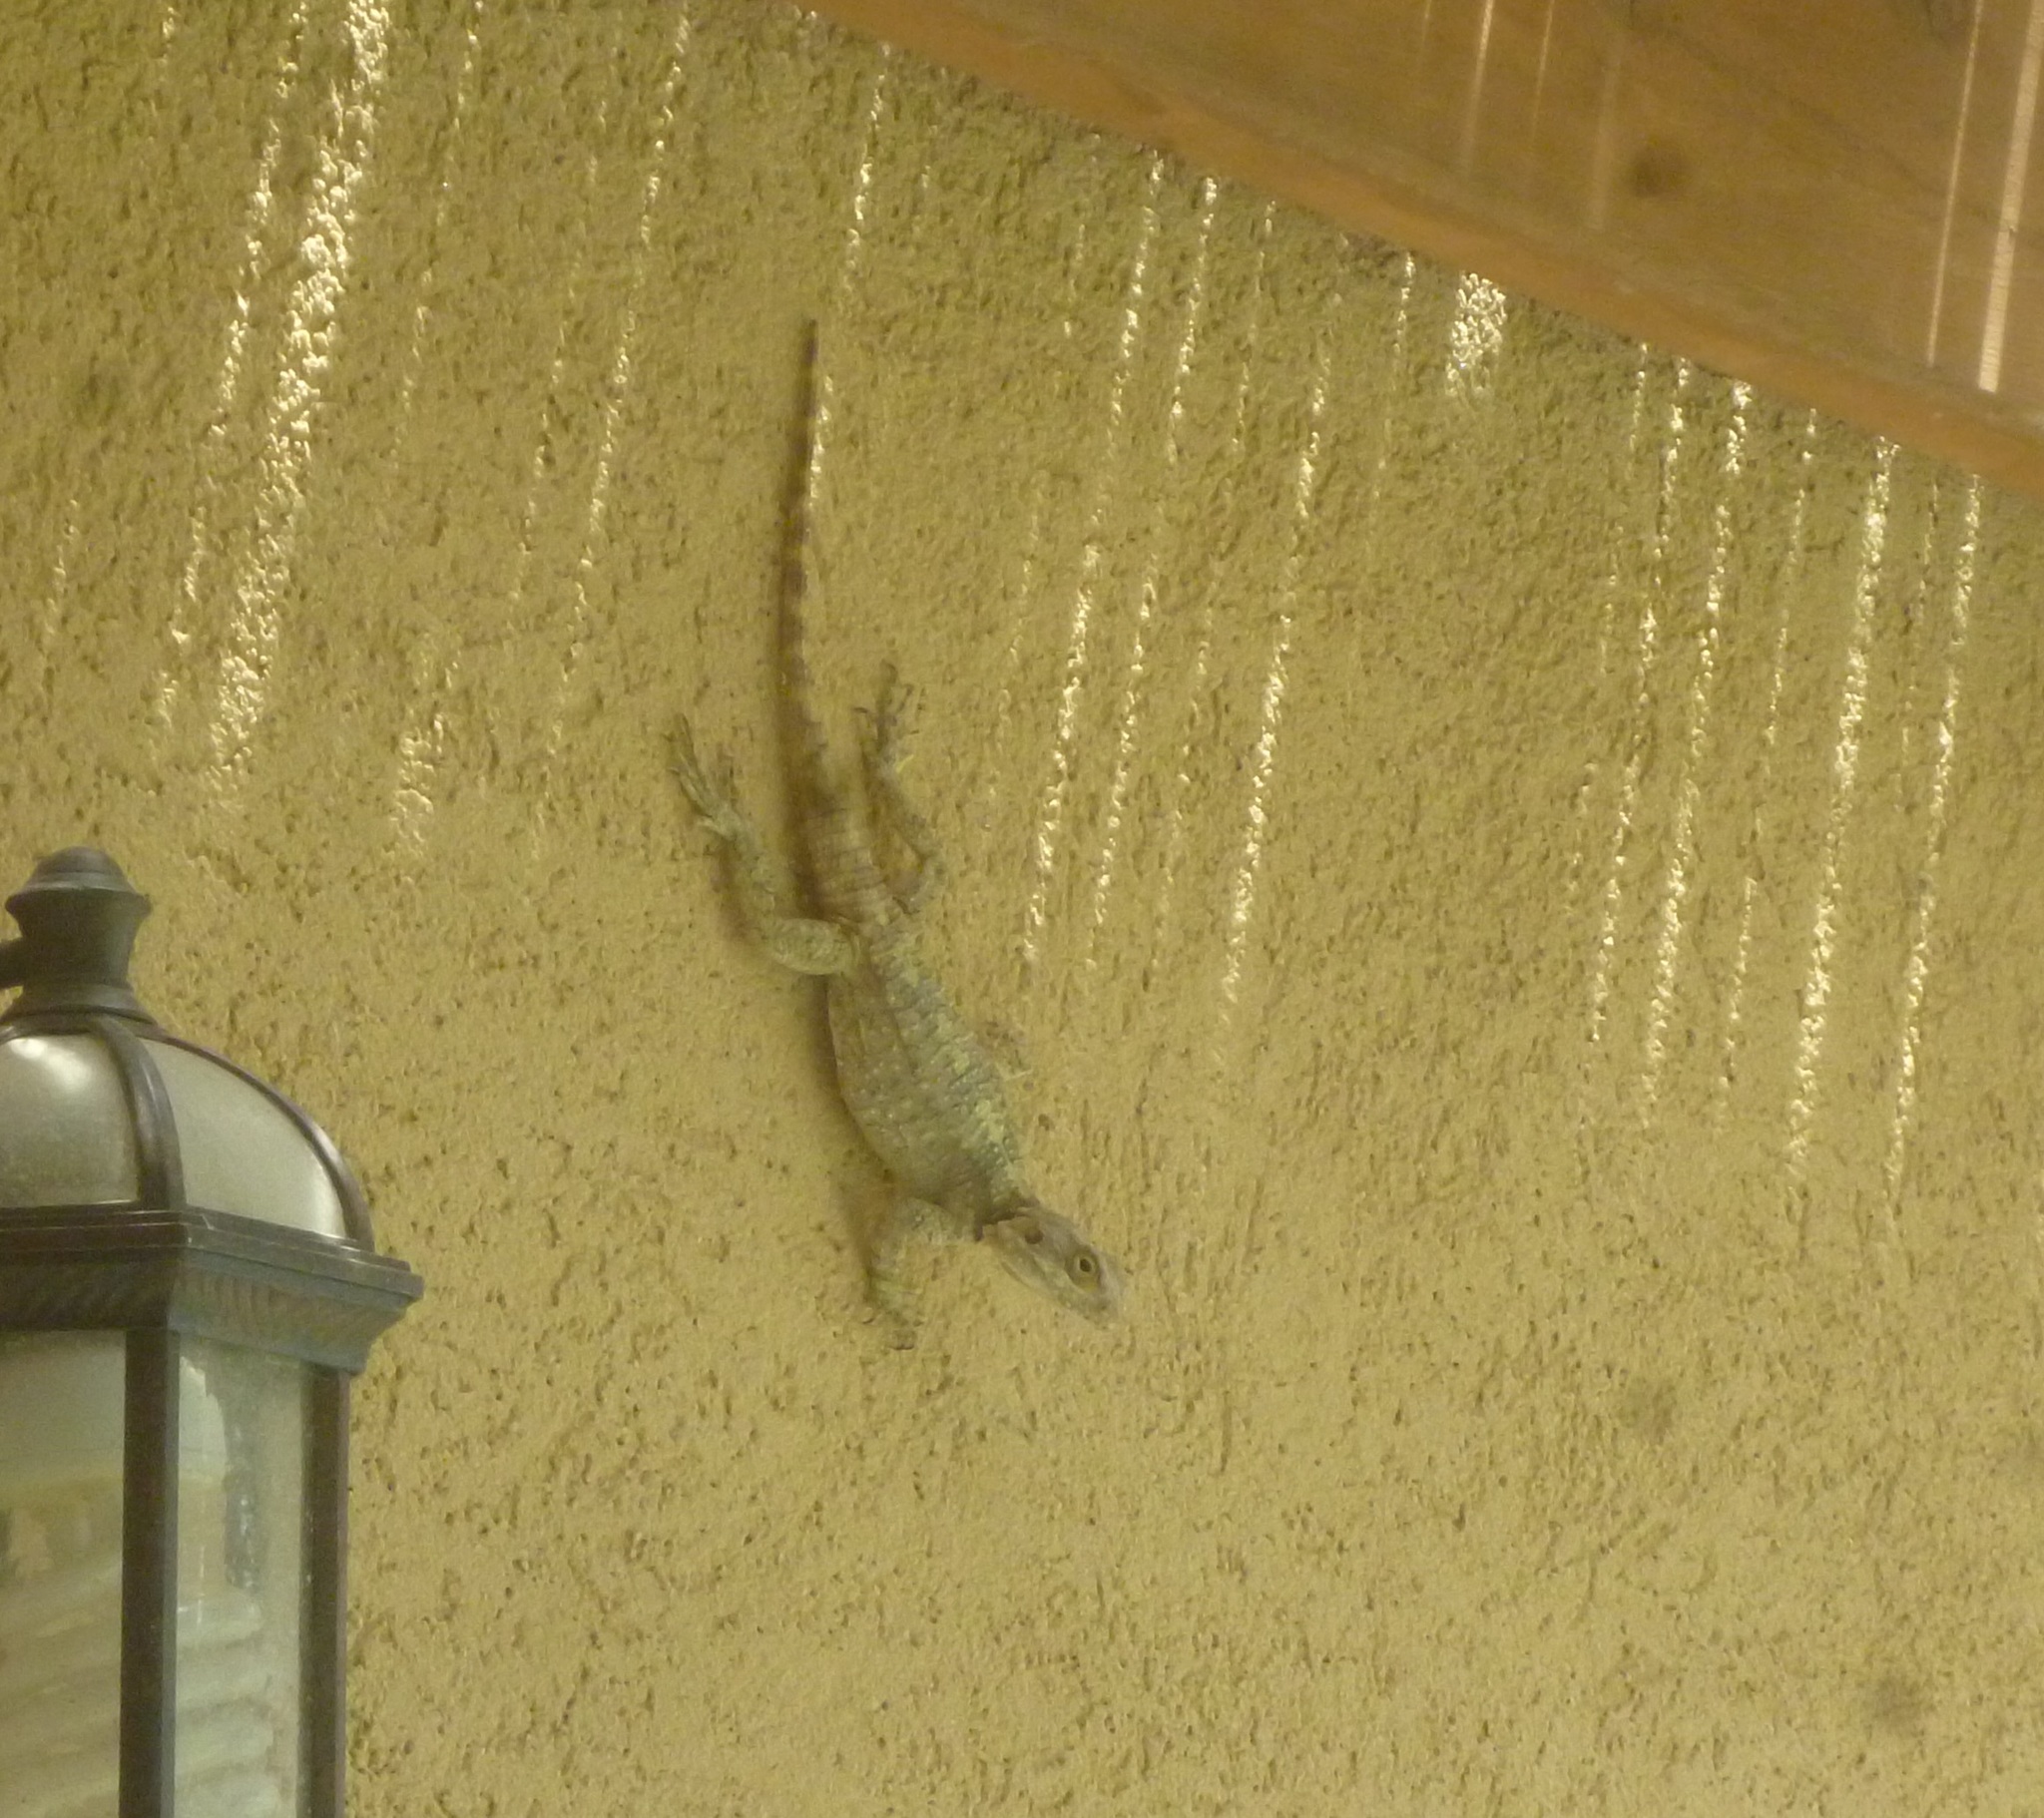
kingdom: Animalia
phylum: Chordata
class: Squamata
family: Agamidae
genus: Laudakia
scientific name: Laudakia vulgaris
